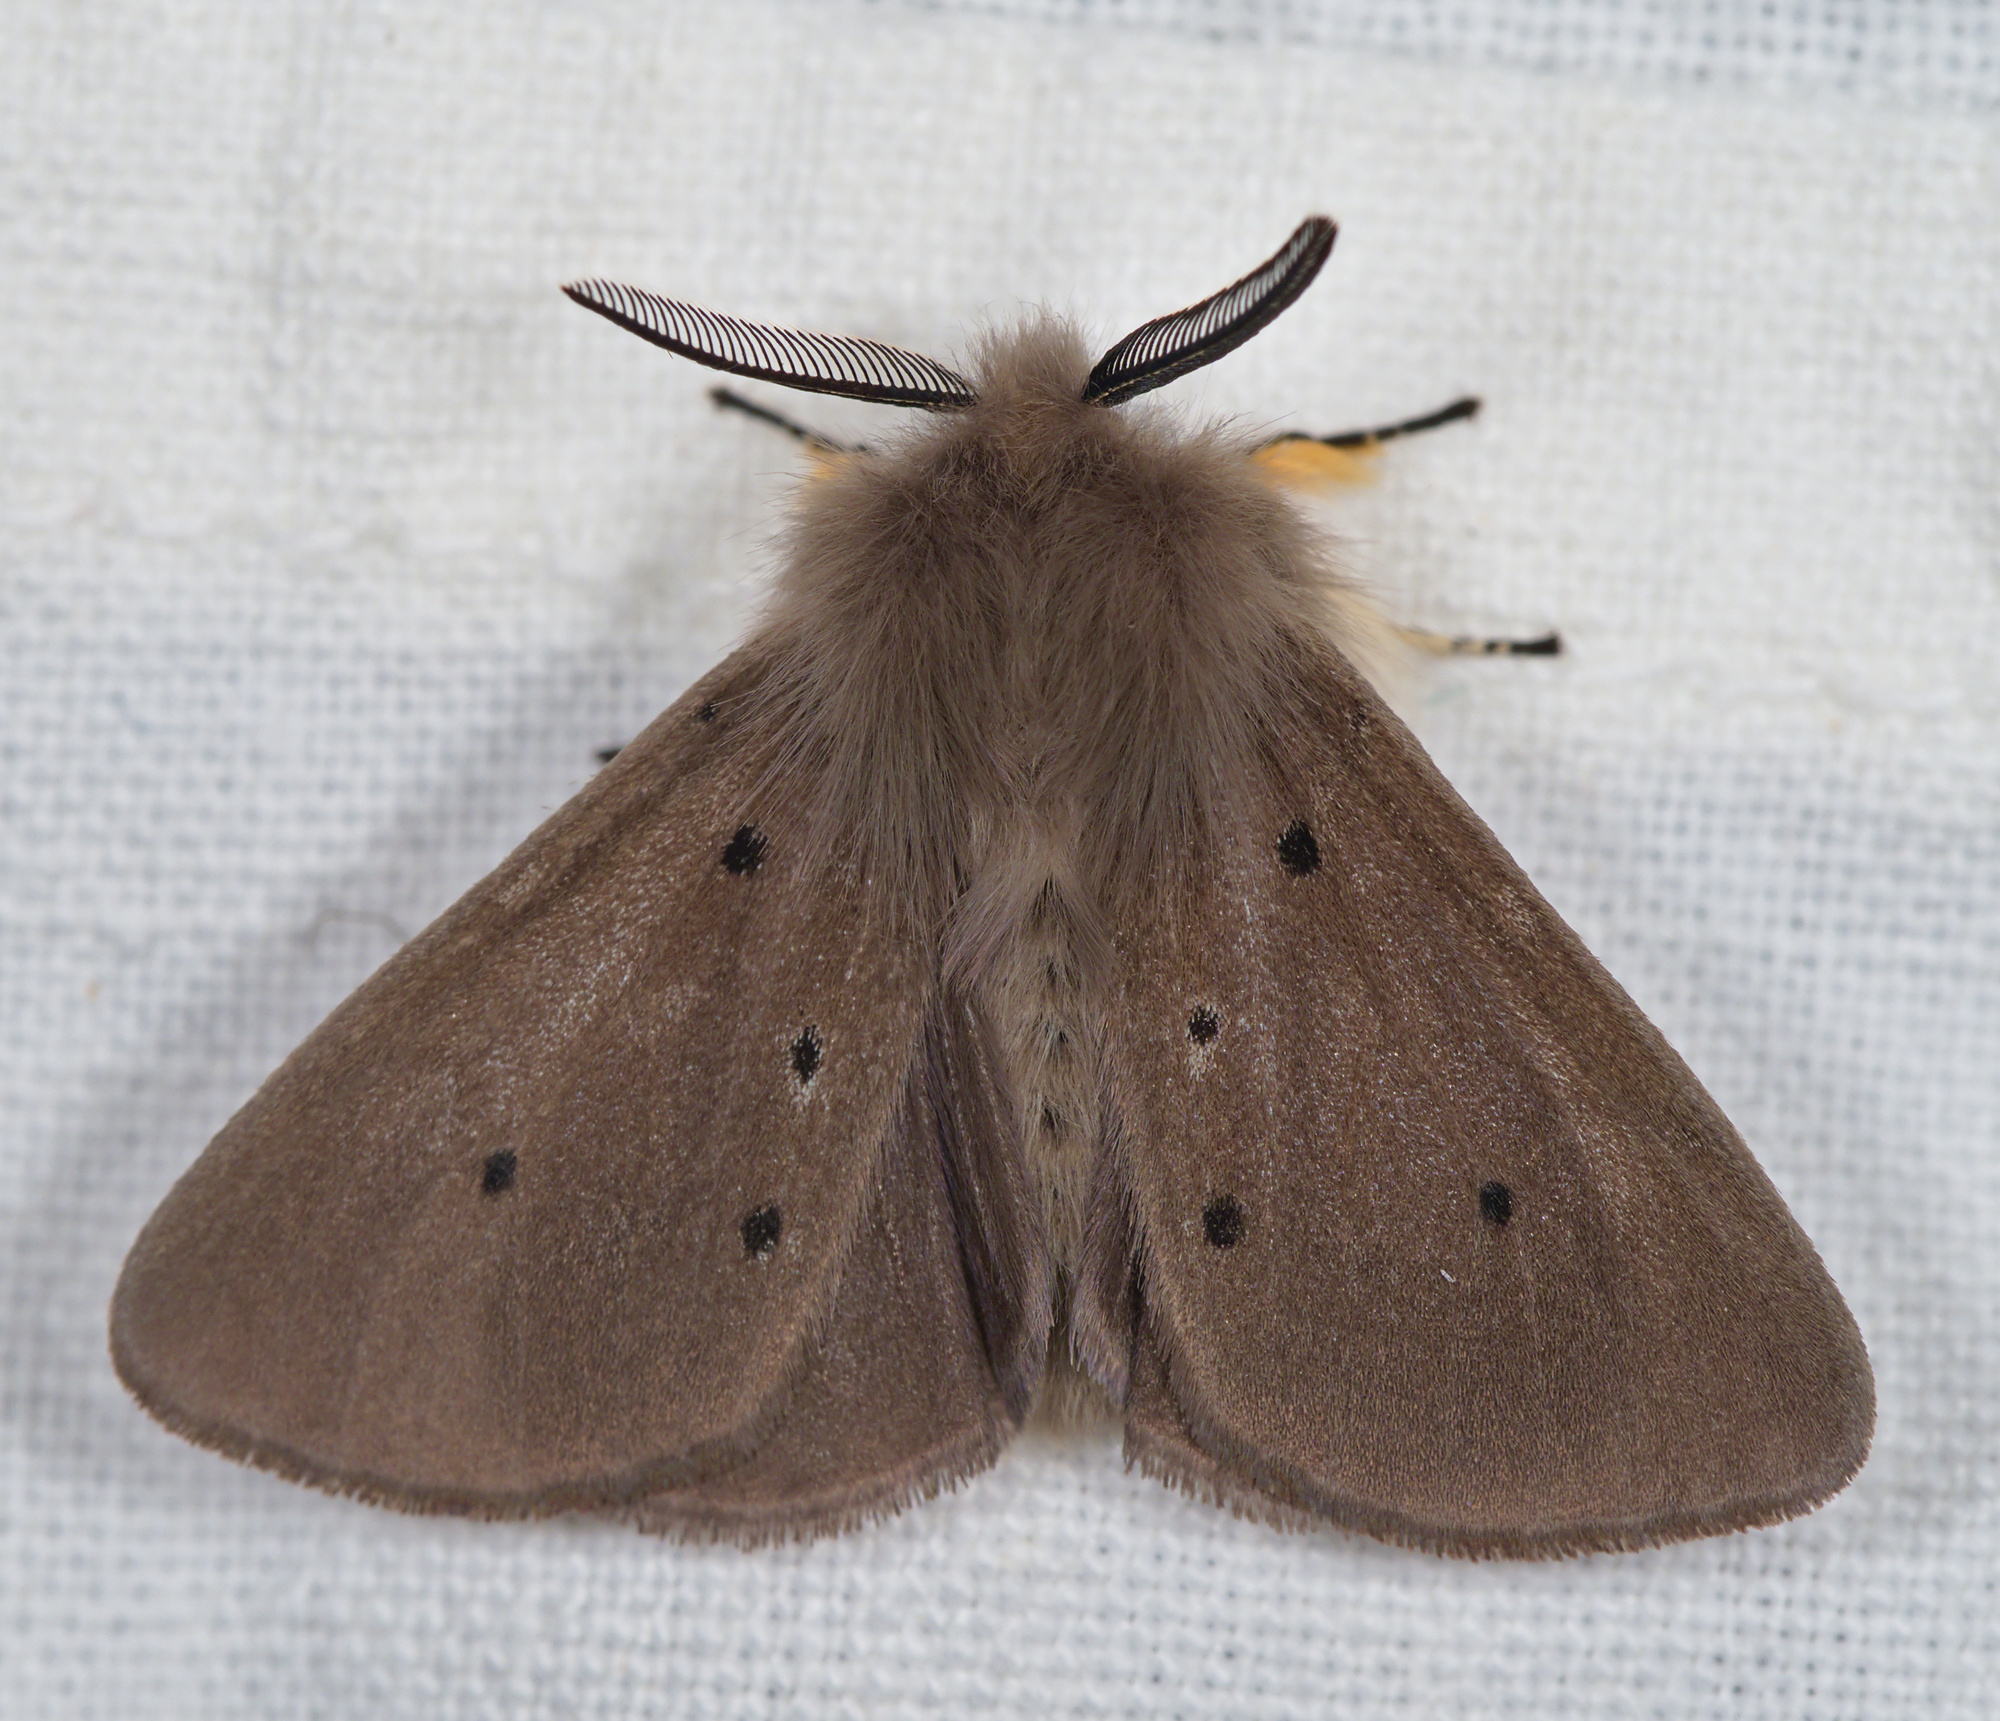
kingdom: Animalia
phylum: Arthropoda
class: Insecta
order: Lepidoptera
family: Erebidae
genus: Diaphora
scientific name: Diaphora mendica
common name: Muslin moth
